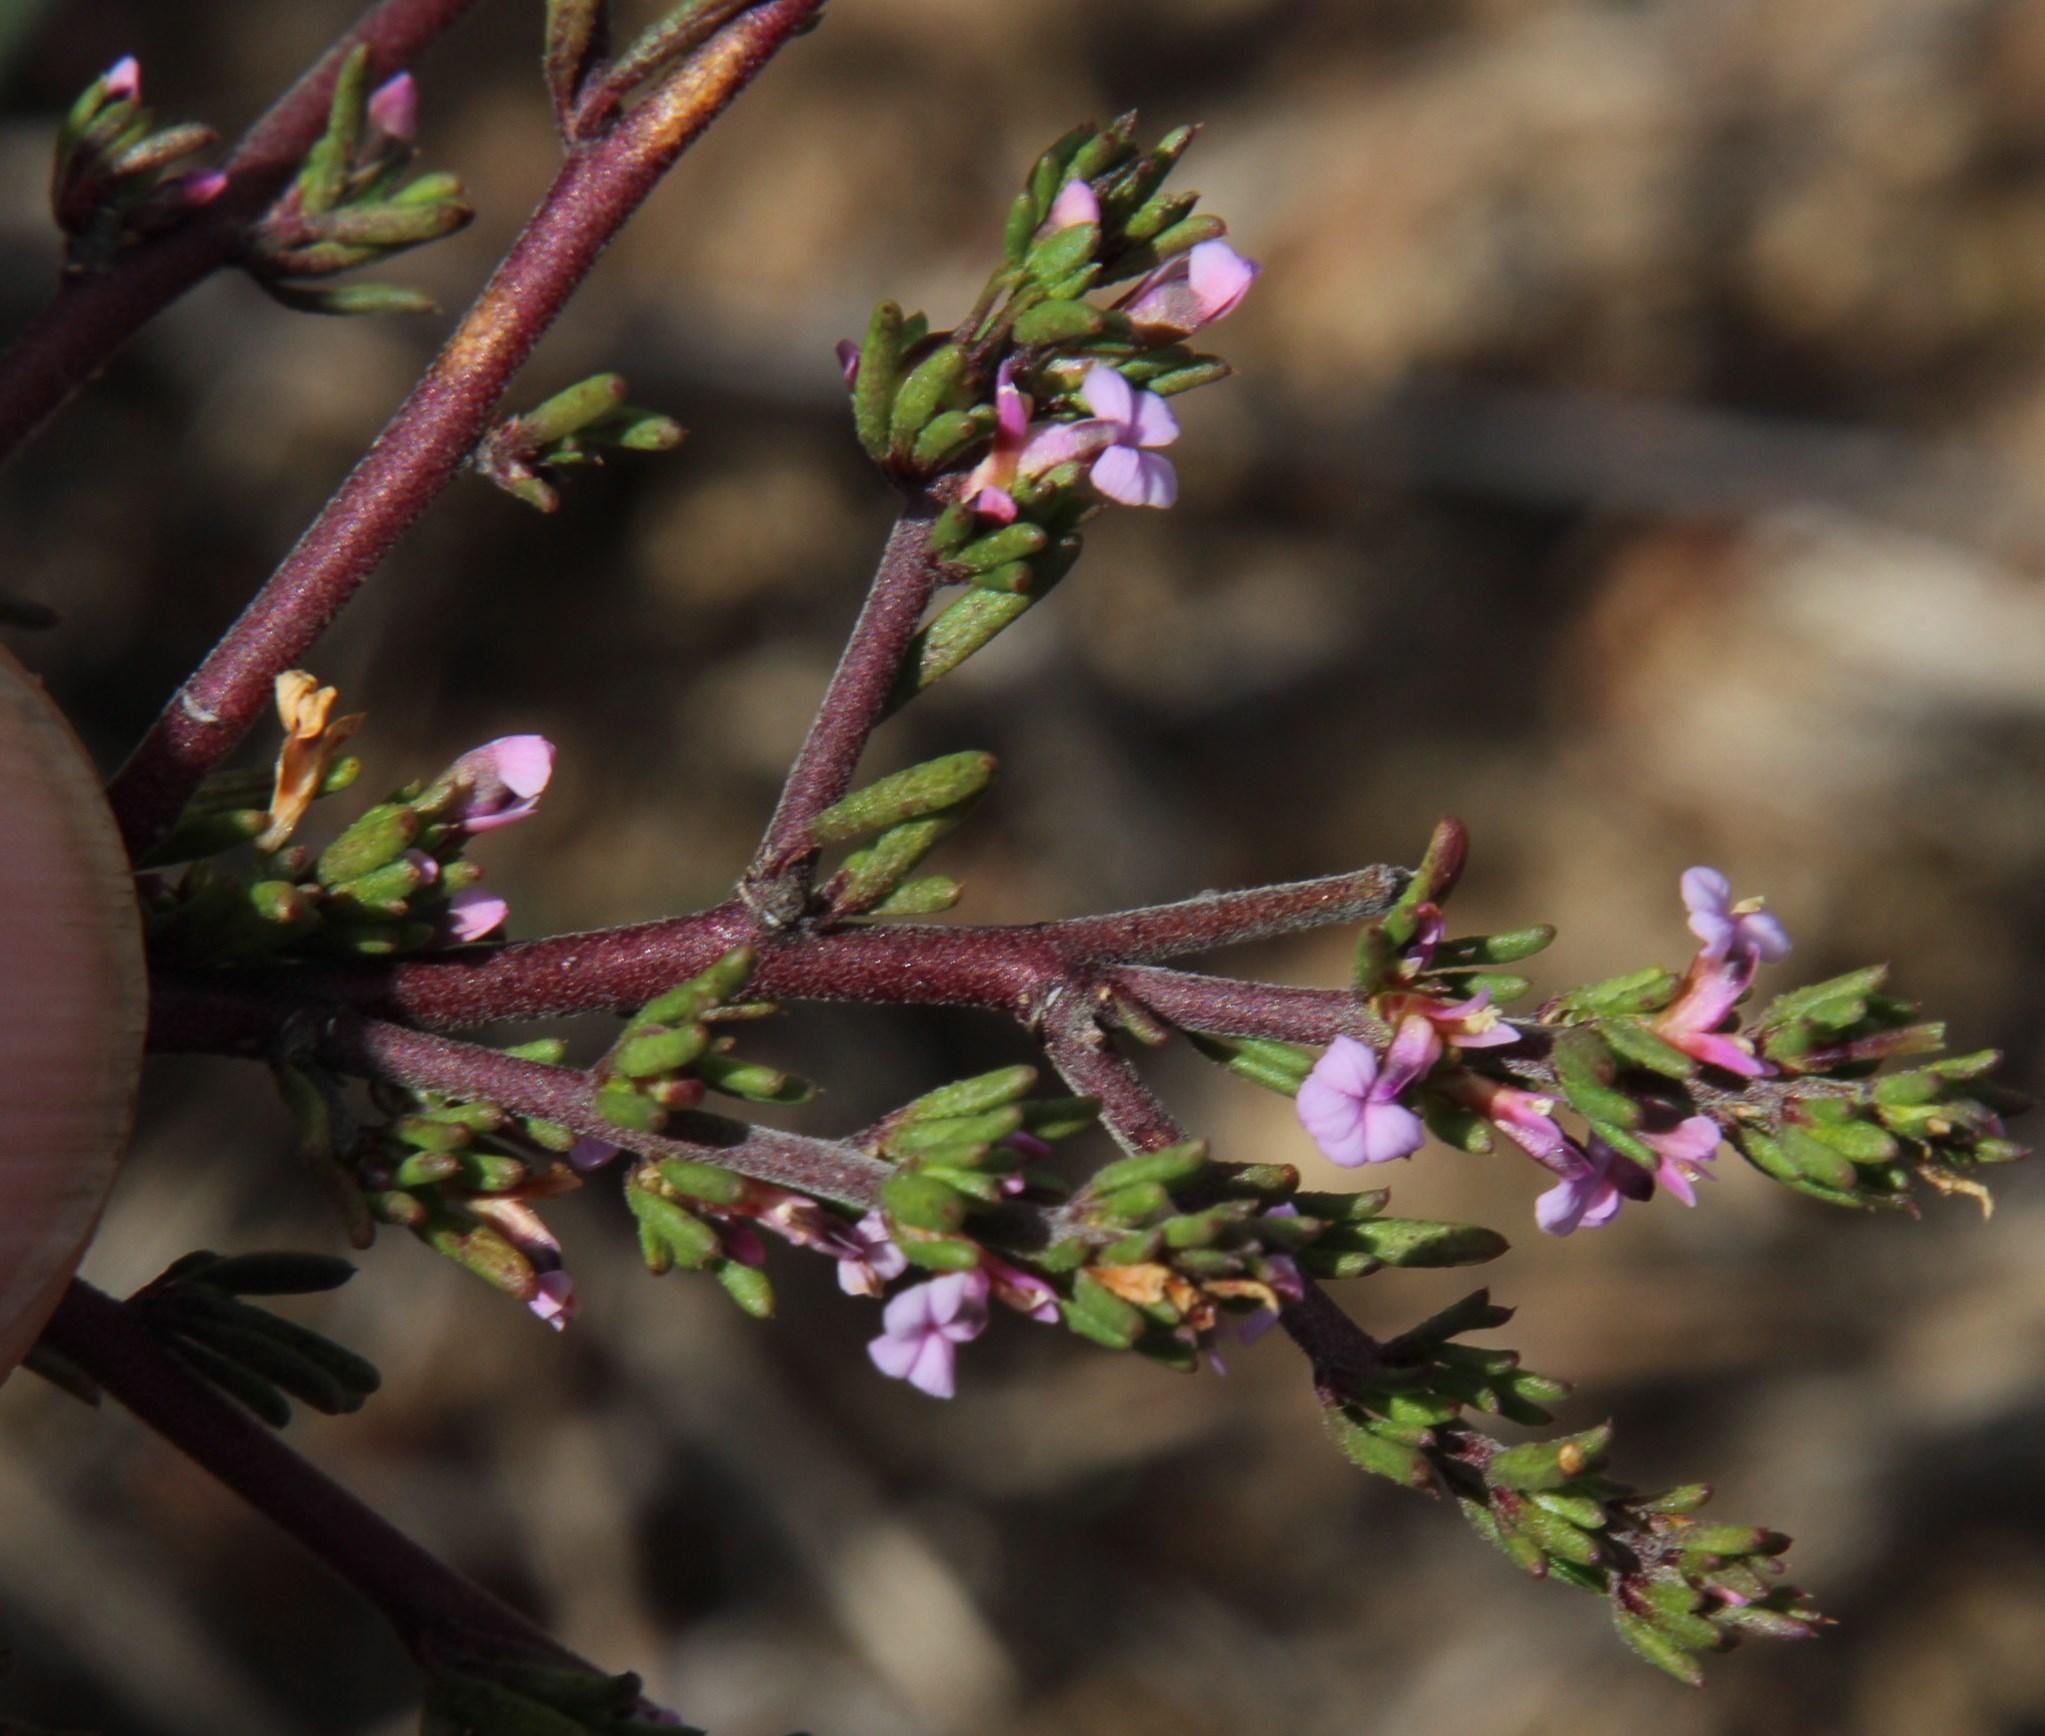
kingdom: Plantae
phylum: Tracheophyta
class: Magnoliopsida
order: Fabales
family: Polygalaceae
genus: Muraltia
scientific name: Muraltia rhamnoides
